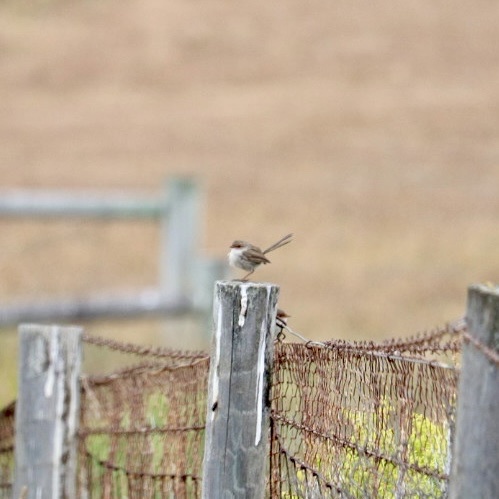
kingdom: Animalia
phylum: Chordata
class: Aves
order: Passeriformes
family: Maluridae
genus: Malurus
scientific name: Malurus cyaneus
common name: Superb fairywren
